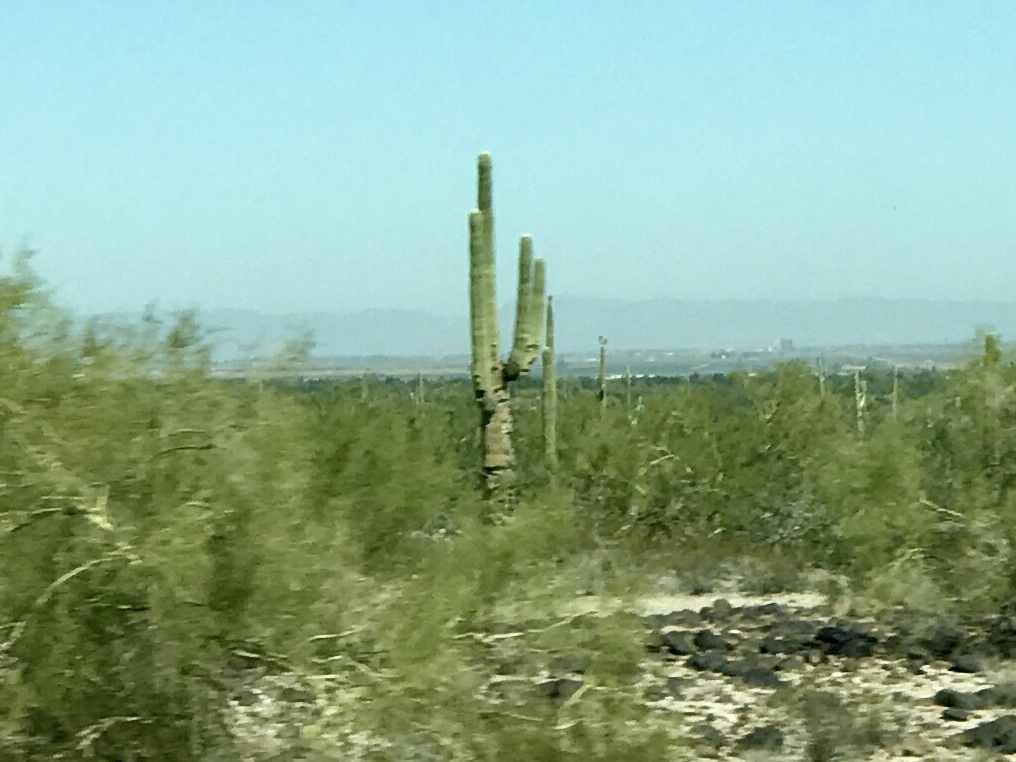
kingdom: Plantae
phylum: Tracheophyta
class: Magnoliopsida
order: Caryophyllales
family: Cactaceae
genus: Carnegiea
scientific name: Carnegiea gigantea
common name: Saguaro
